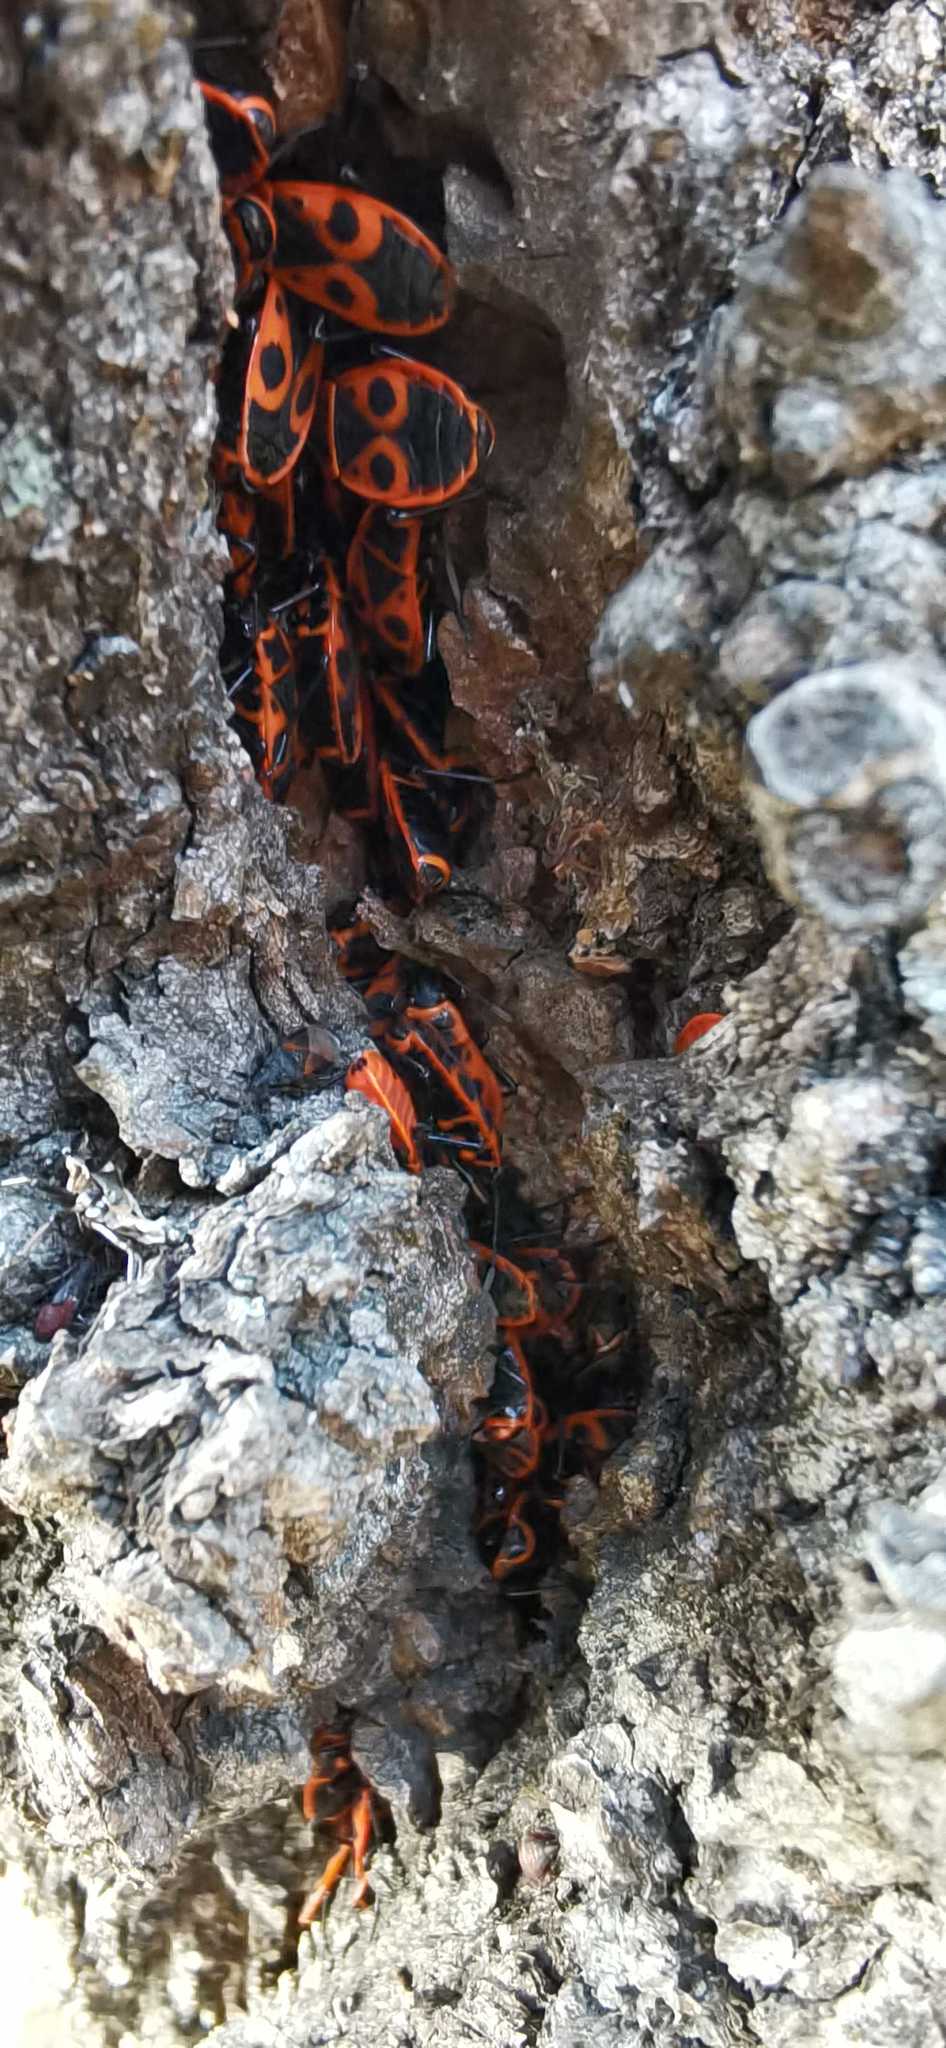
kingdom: Animalia
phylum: Arthropoda
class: Insecta
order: Hemiptera
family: Pyrrhocoridae
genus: Pyrrhocoris
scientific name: Pyrrhocoris apterus
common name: Firebug
